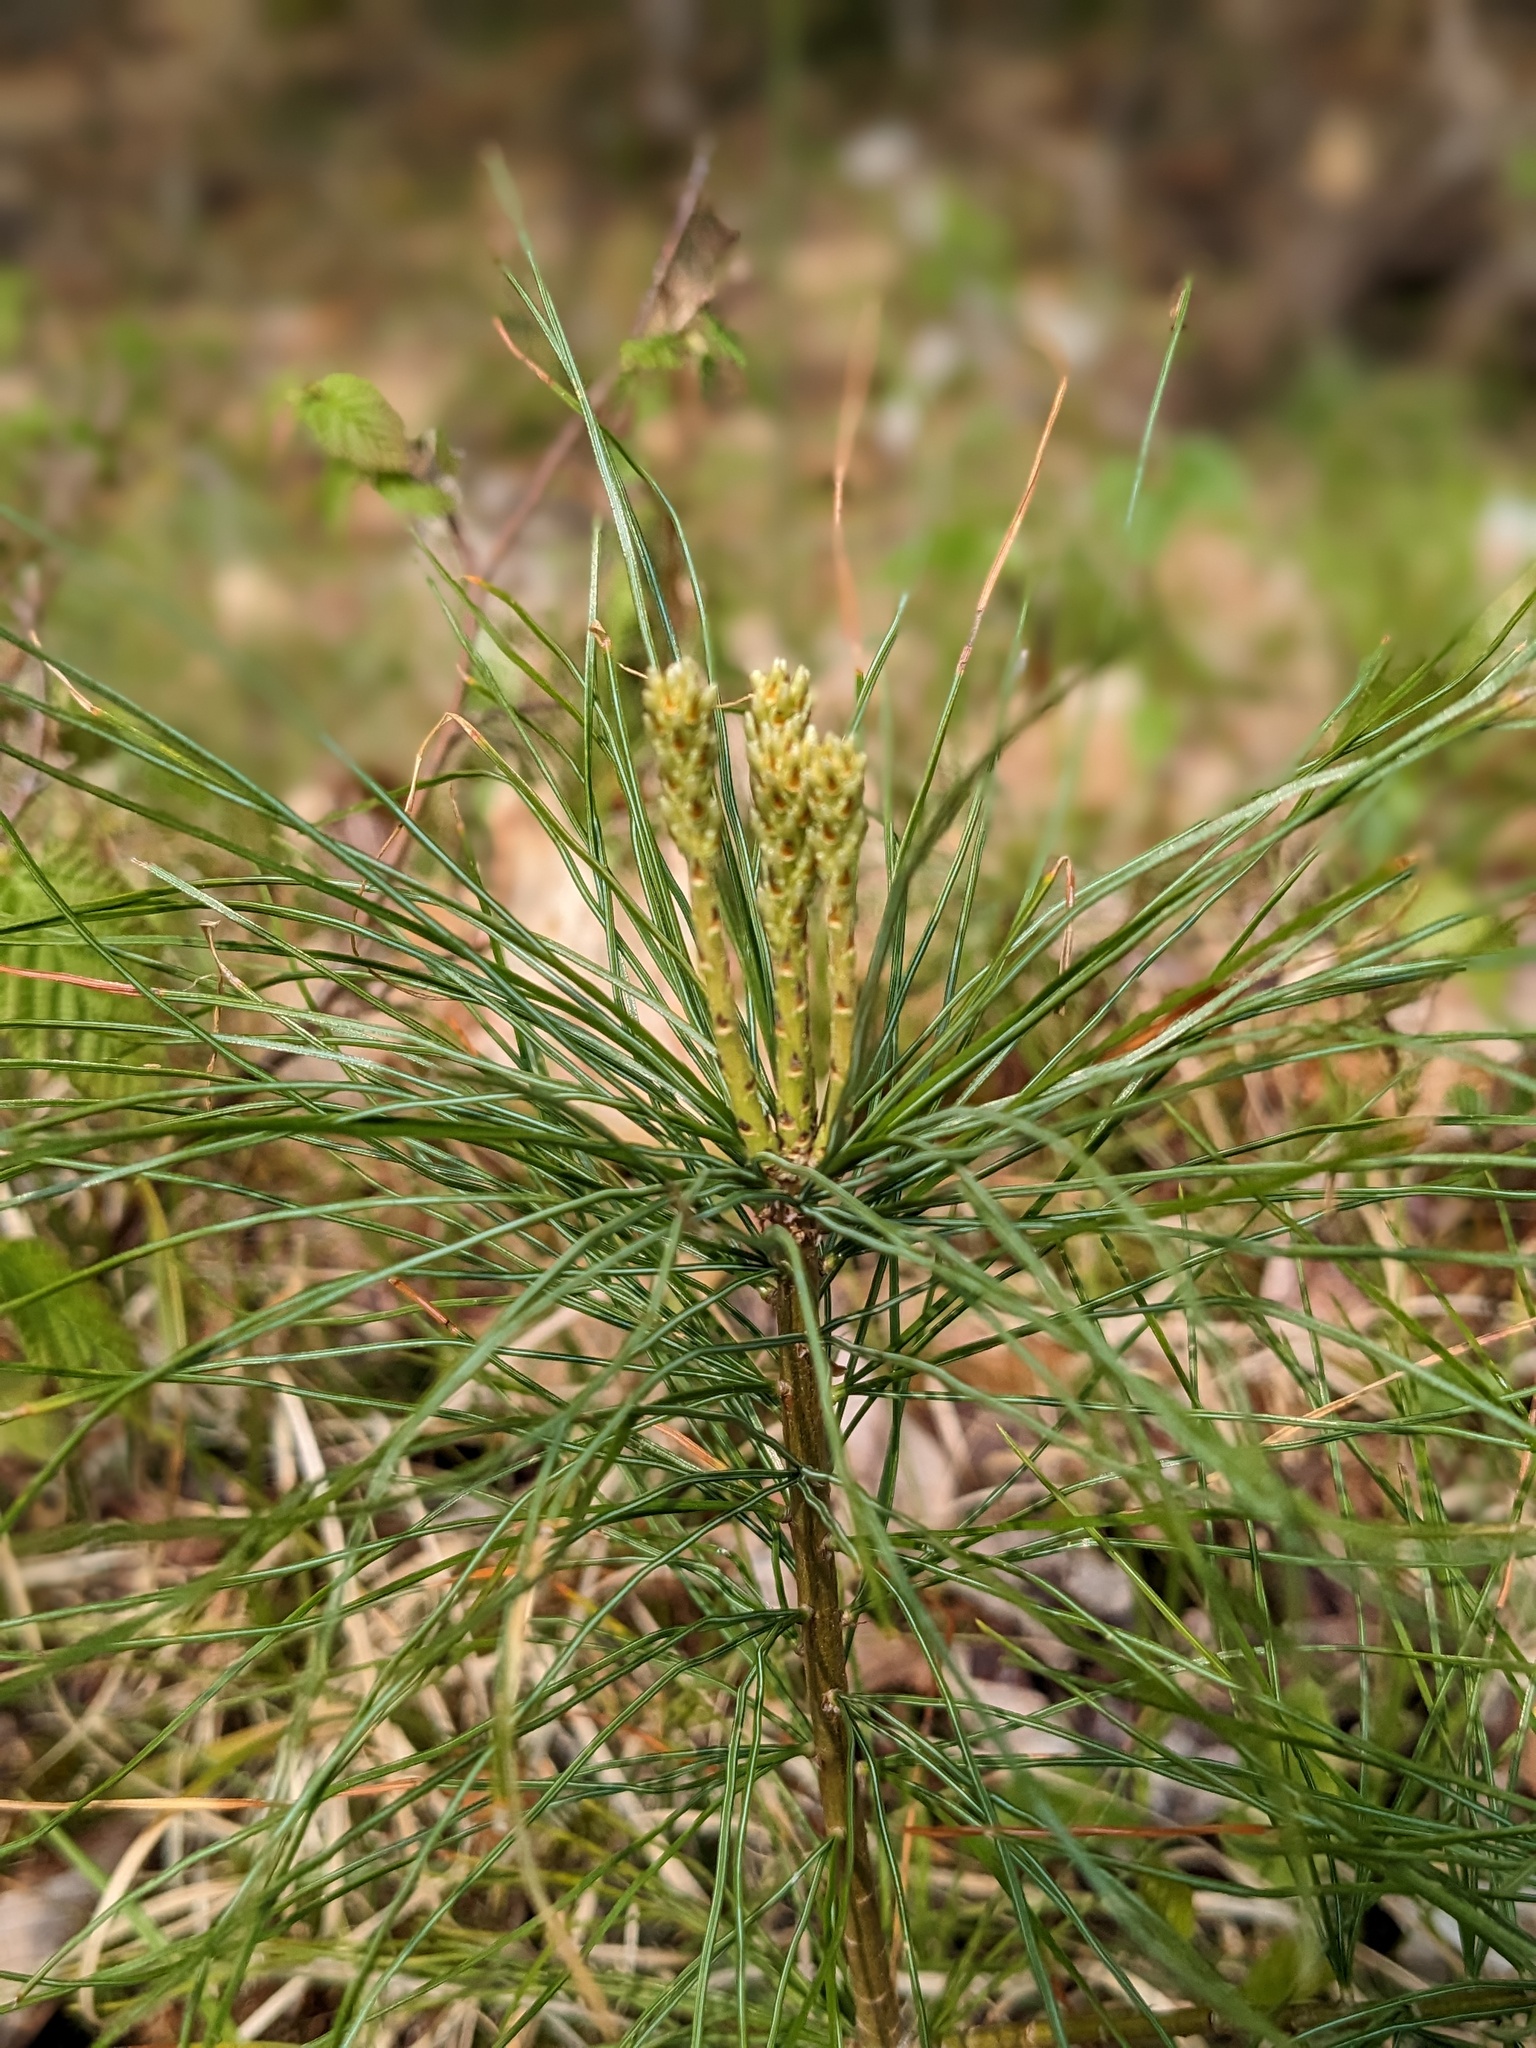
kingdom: Plantae
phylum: Tracheophyta
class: Pinopsida
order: Pinales
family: Pinaceae
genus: Pinus
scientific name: Pinus strobus
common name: Weymouth pine
